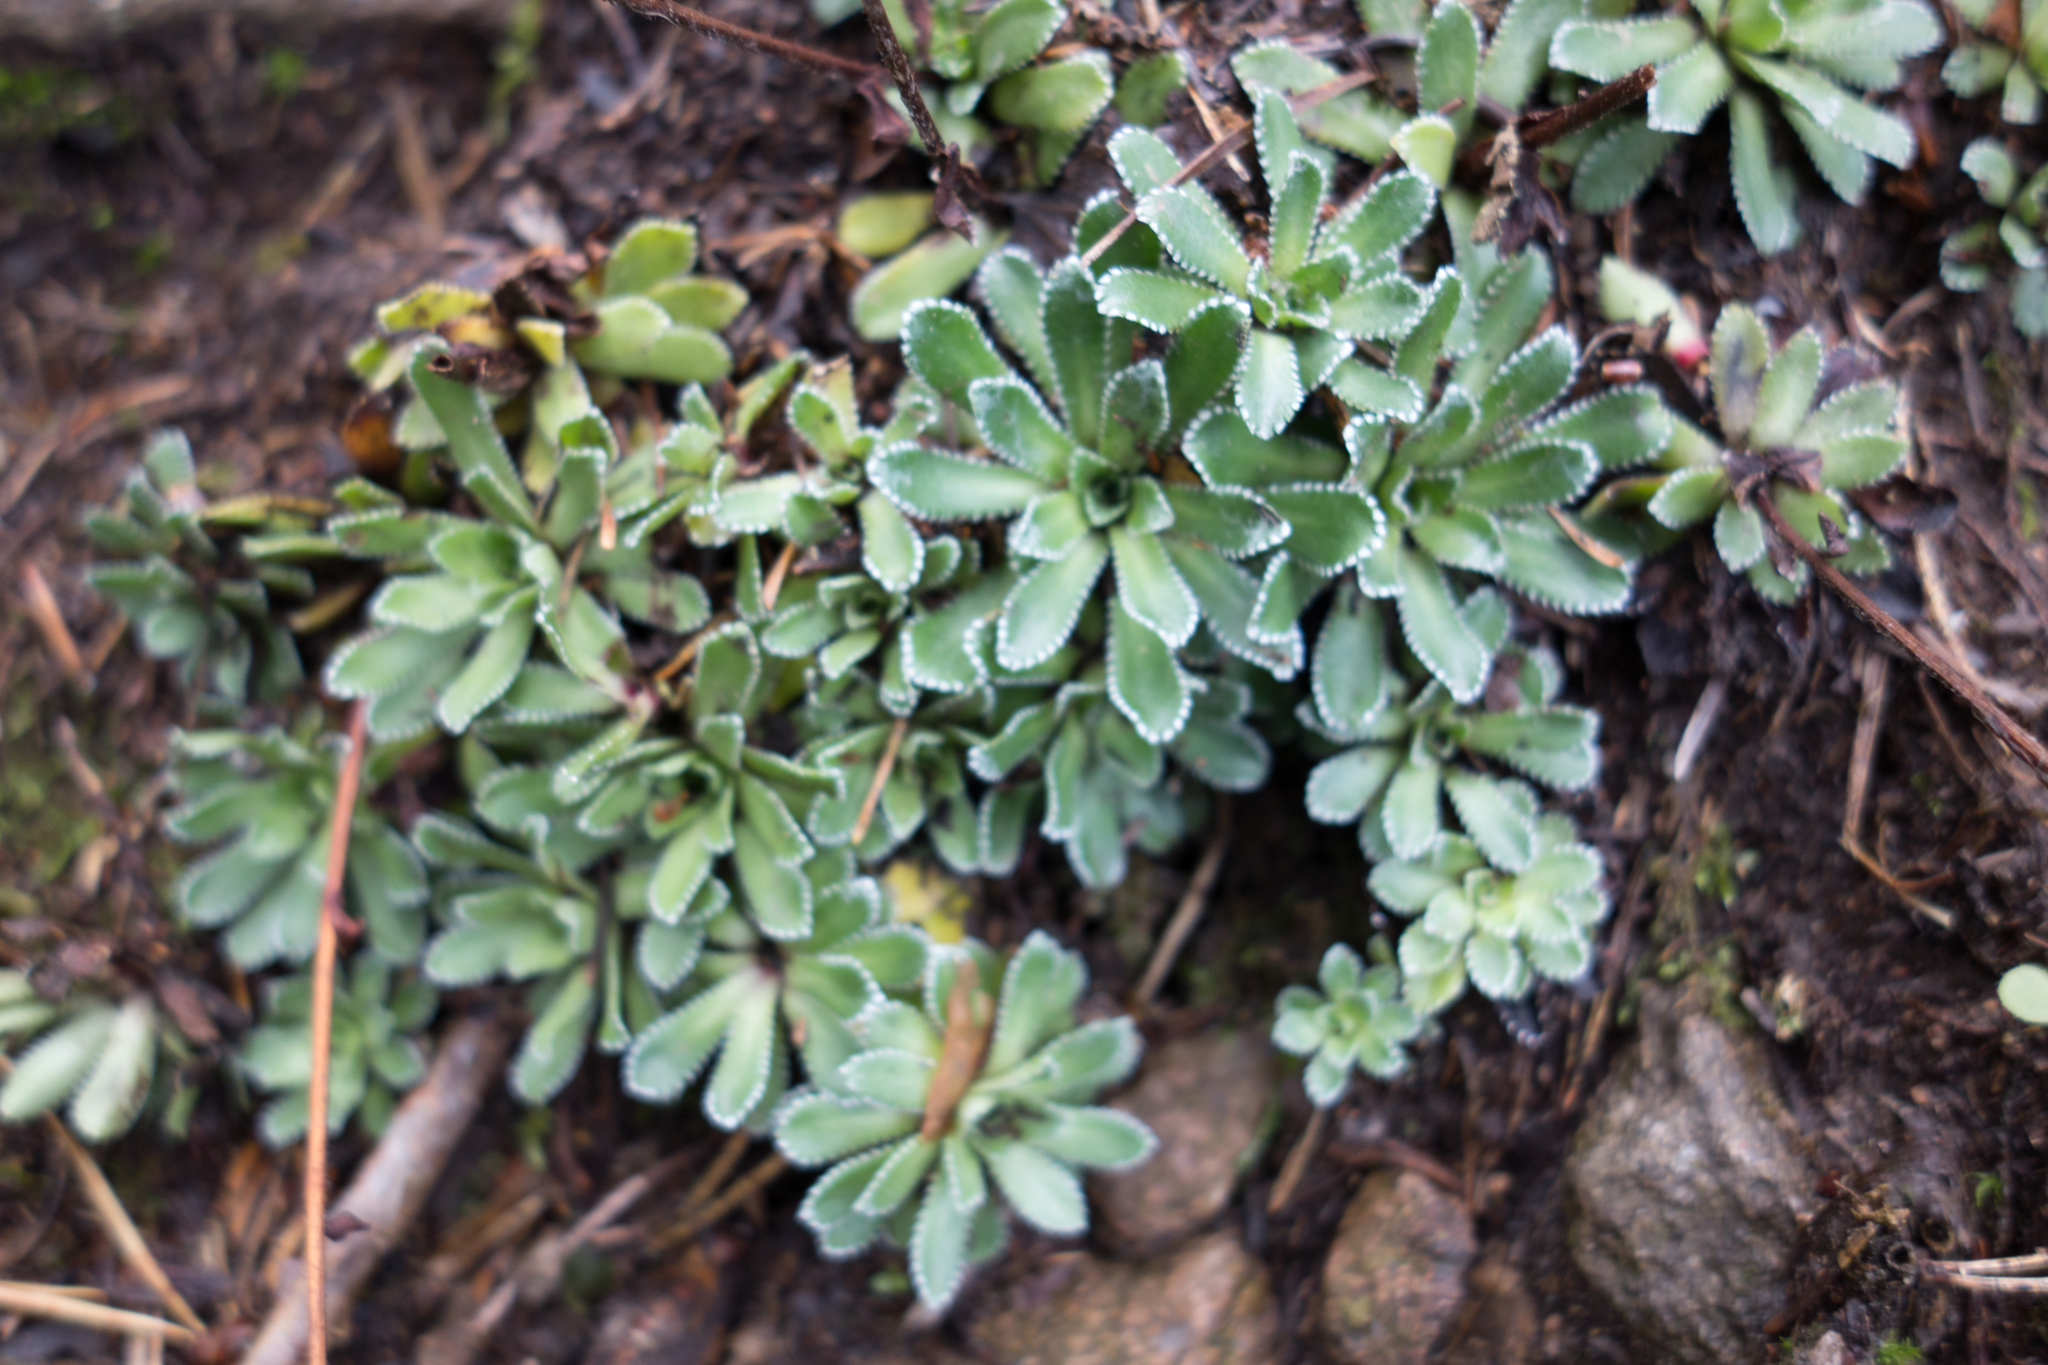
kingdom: Plantae
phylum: Tracheophyta
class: Magnoliopsida
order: Saxifragales
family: Saxifragaceae
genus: Saxifraga
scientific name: Saxifraga paniculata
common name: Livelong saxifrage
